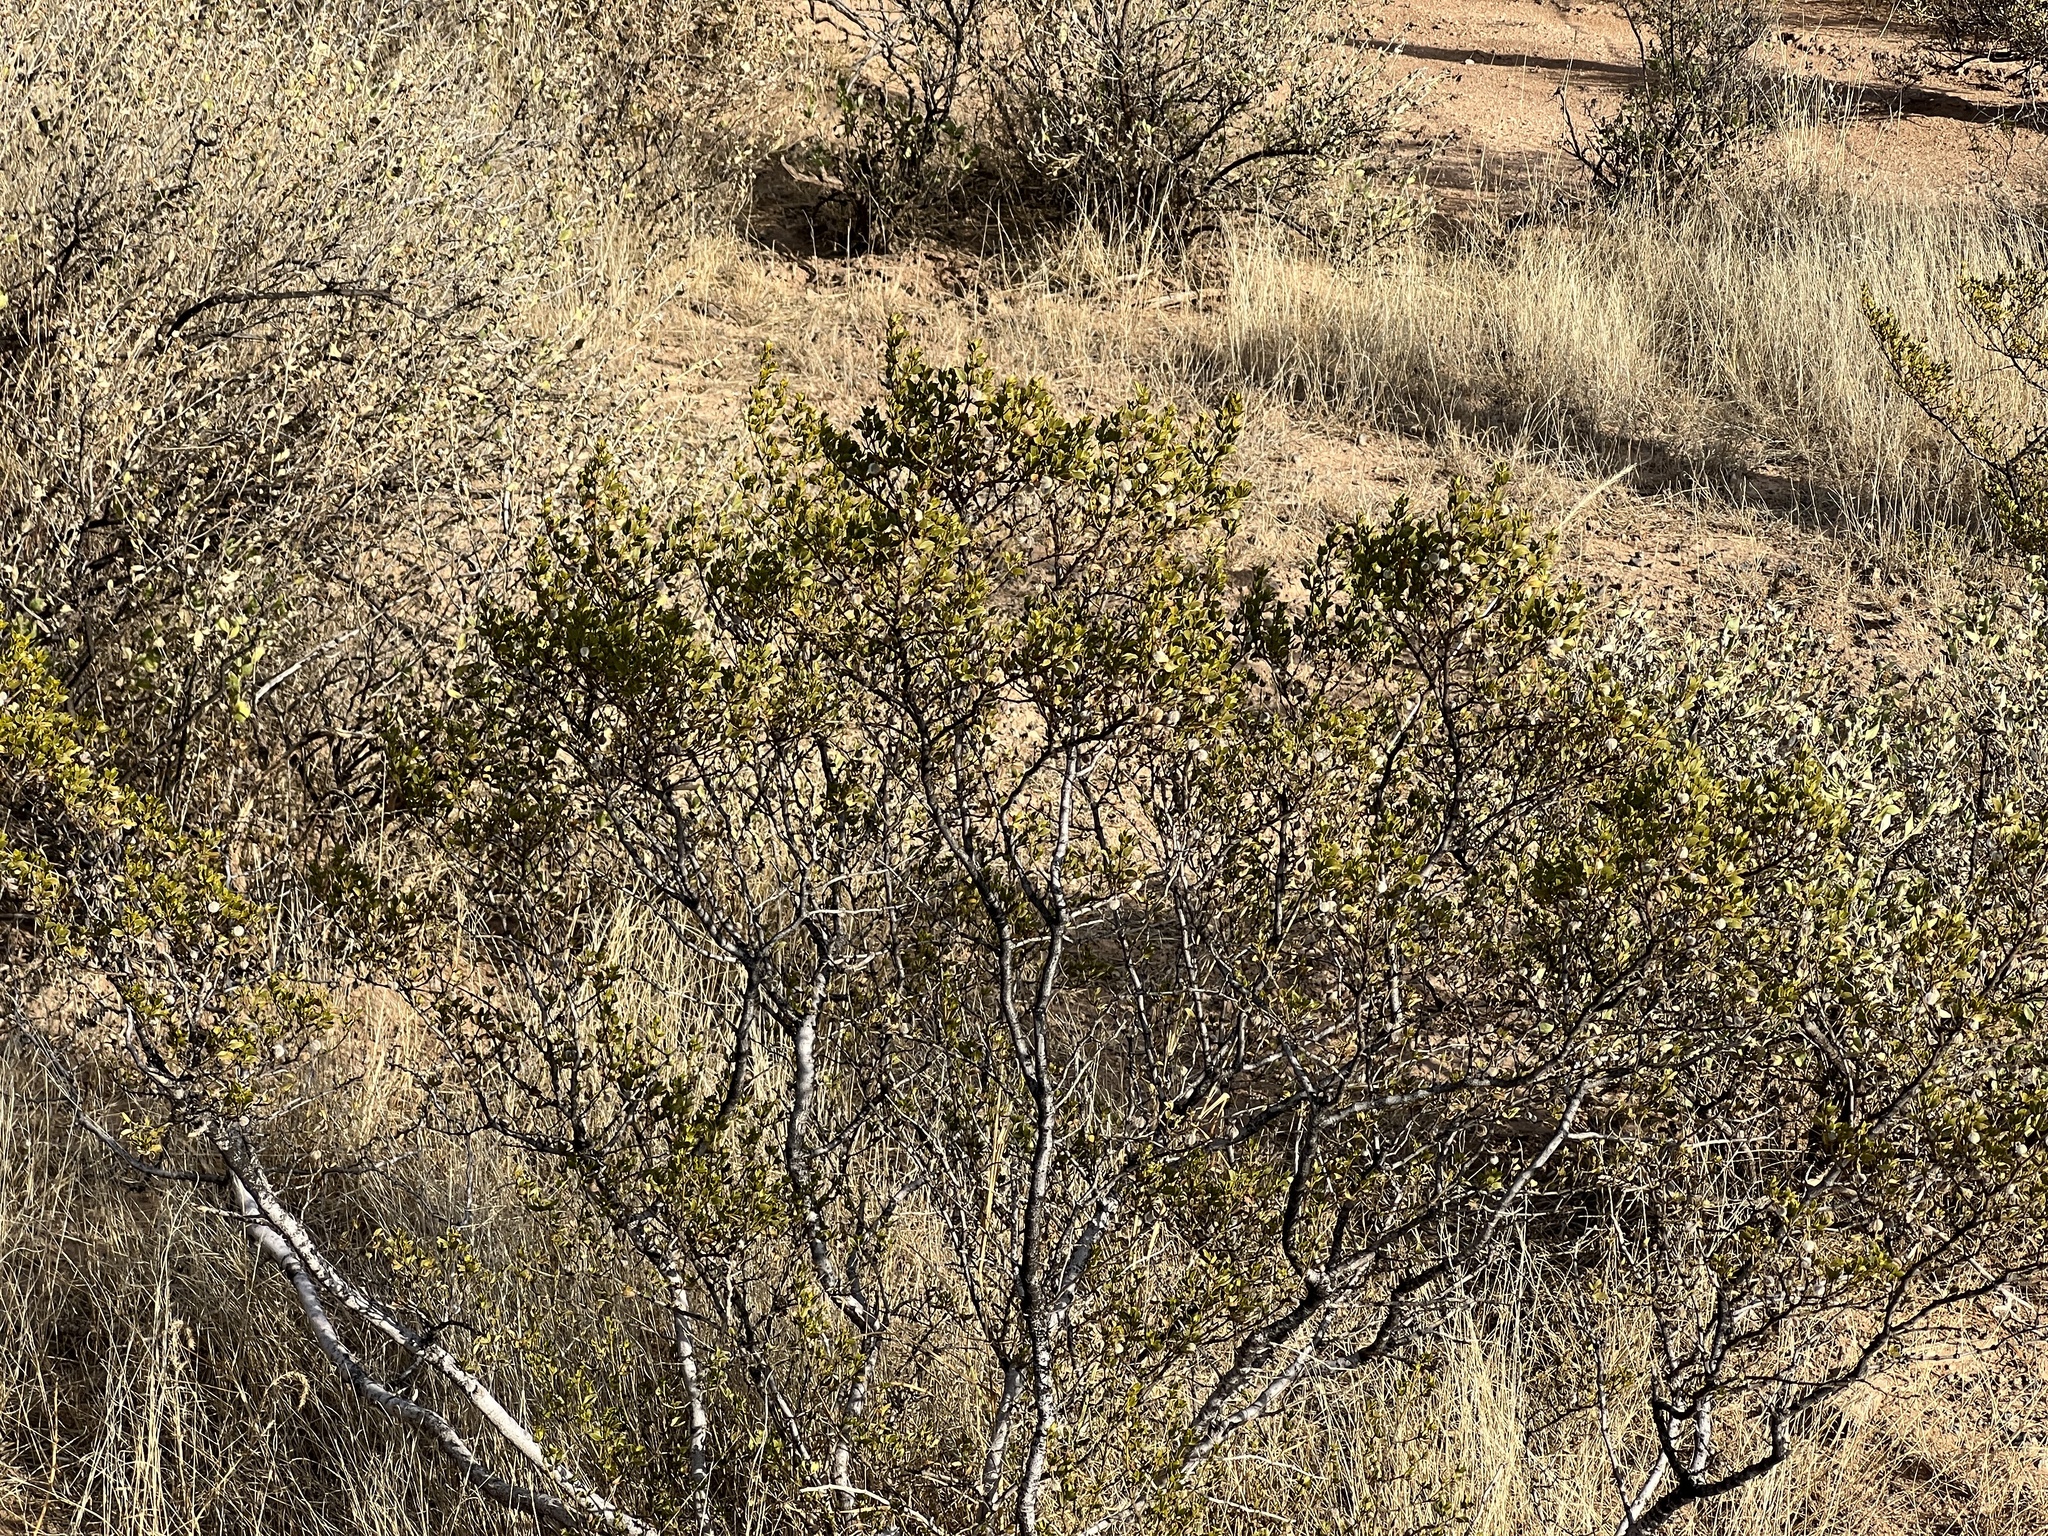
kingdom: Plantae
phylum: Tracheophyta
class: Magnoliopsida
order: Zygophyllales
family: Zygophyllaceae
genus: Larrea
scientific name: Larrea tridentata
